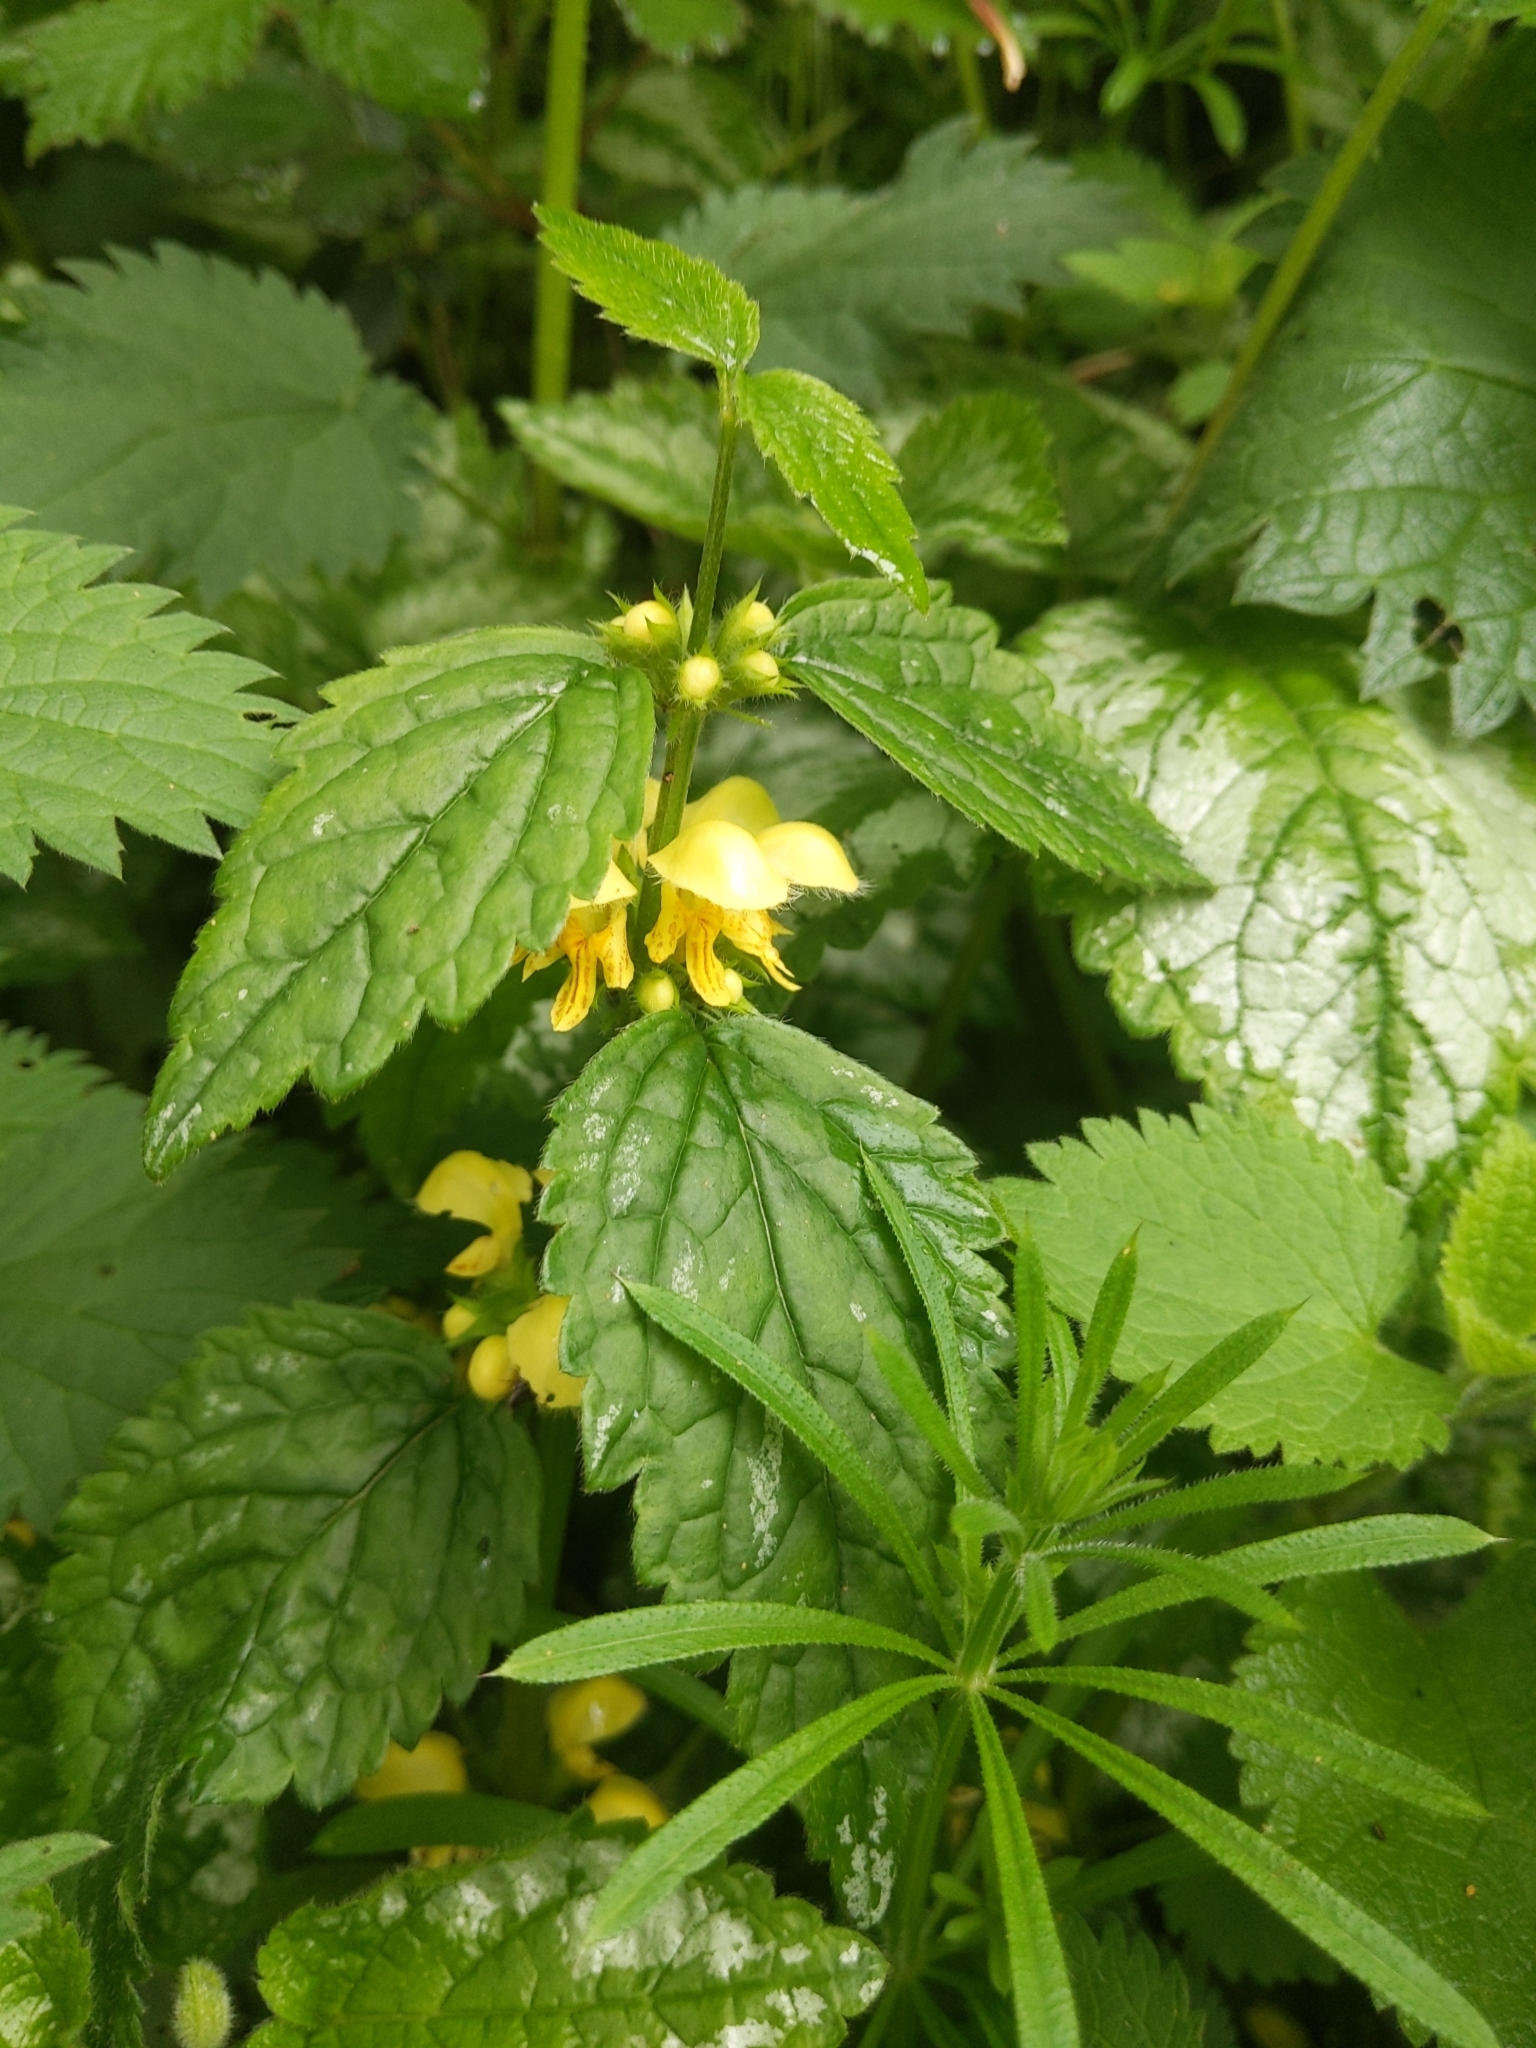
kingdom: Plantae
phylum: Tracheophyta
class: Magnoliopsida
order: Lamiales
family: Lamiaceae
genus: Lamium
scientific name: Lamium galeobdolon
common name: Yellow archangel
